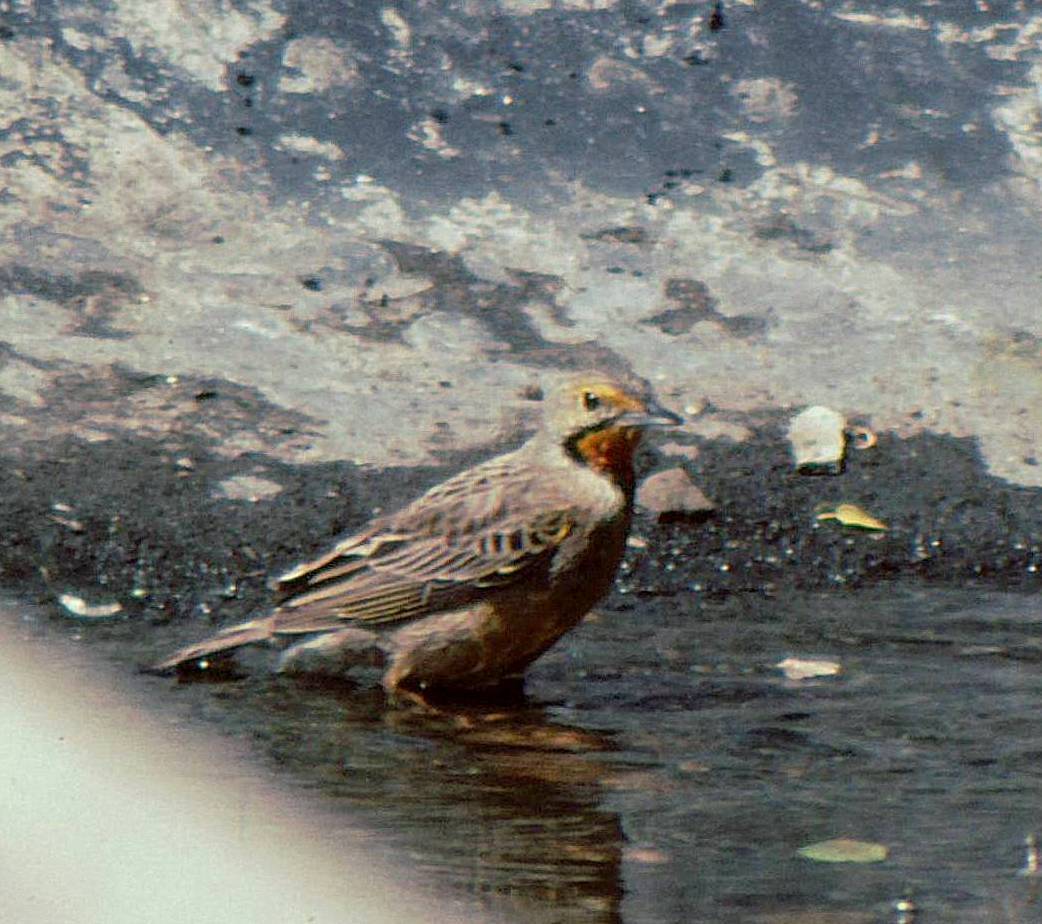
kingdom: Animalia
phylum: Chordata
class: Aves
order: Passeriformes
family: Motacillidae
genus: Macronyx
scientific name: Macronyx capensis
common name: Cape longclaw
